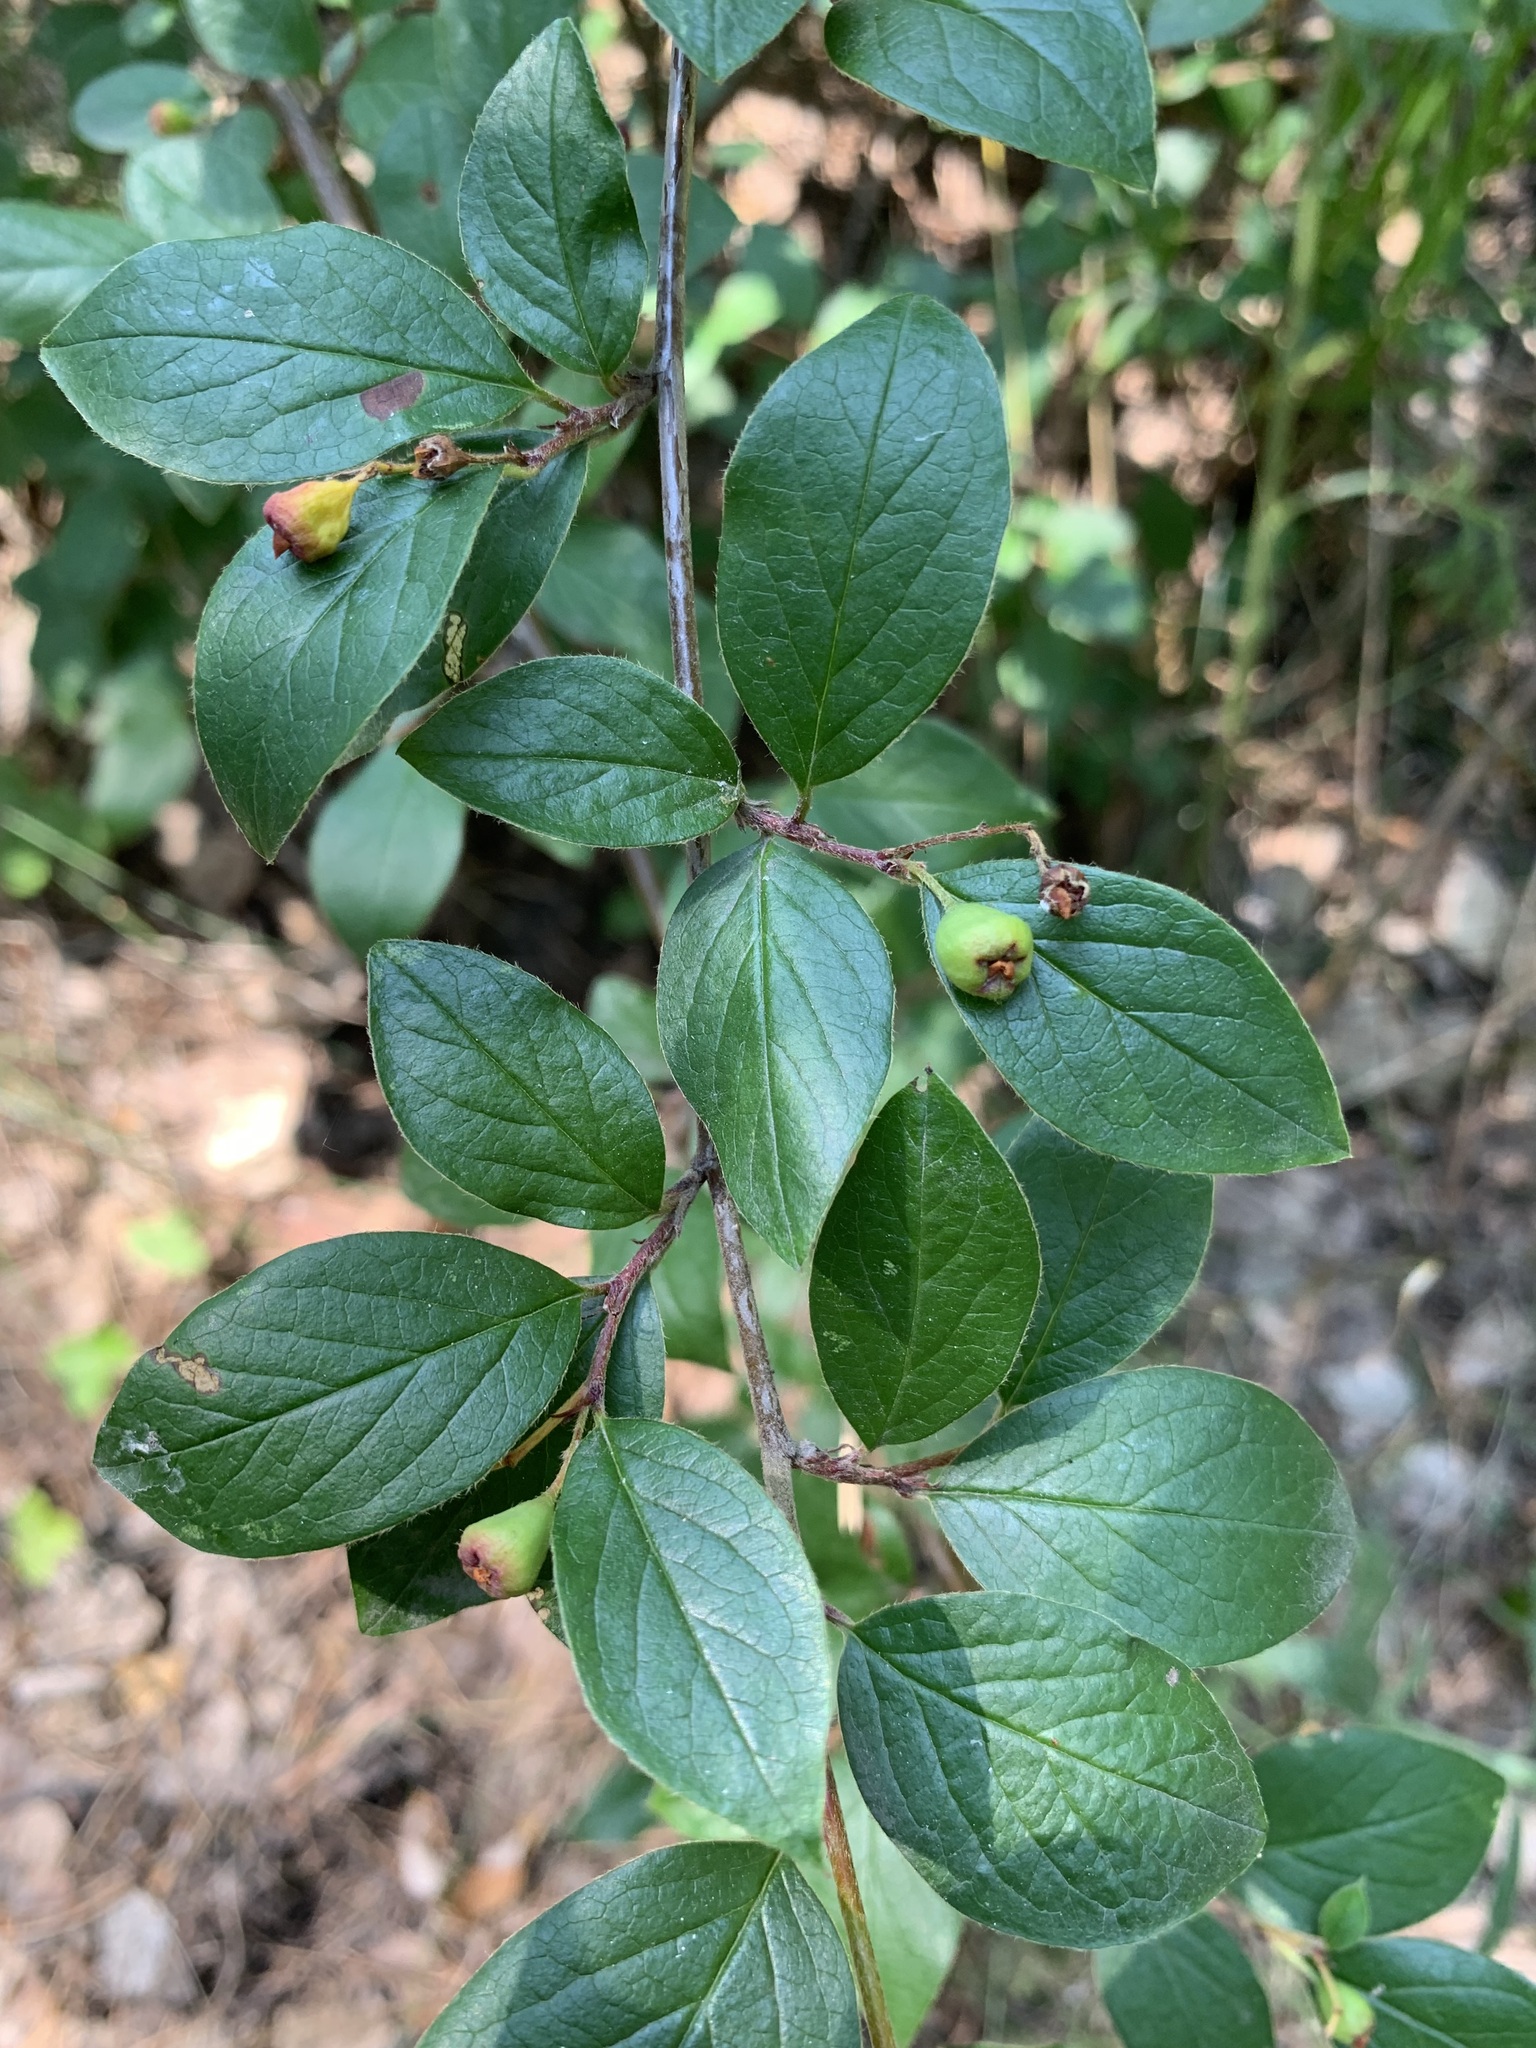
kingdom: Plantae
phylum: Tracheophyta
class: Magnoliopsida
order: Rosales
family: Rosaceae
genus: Cotoneaster
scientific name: Cotoneaster acutifolius
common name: Peking cotoneaster
